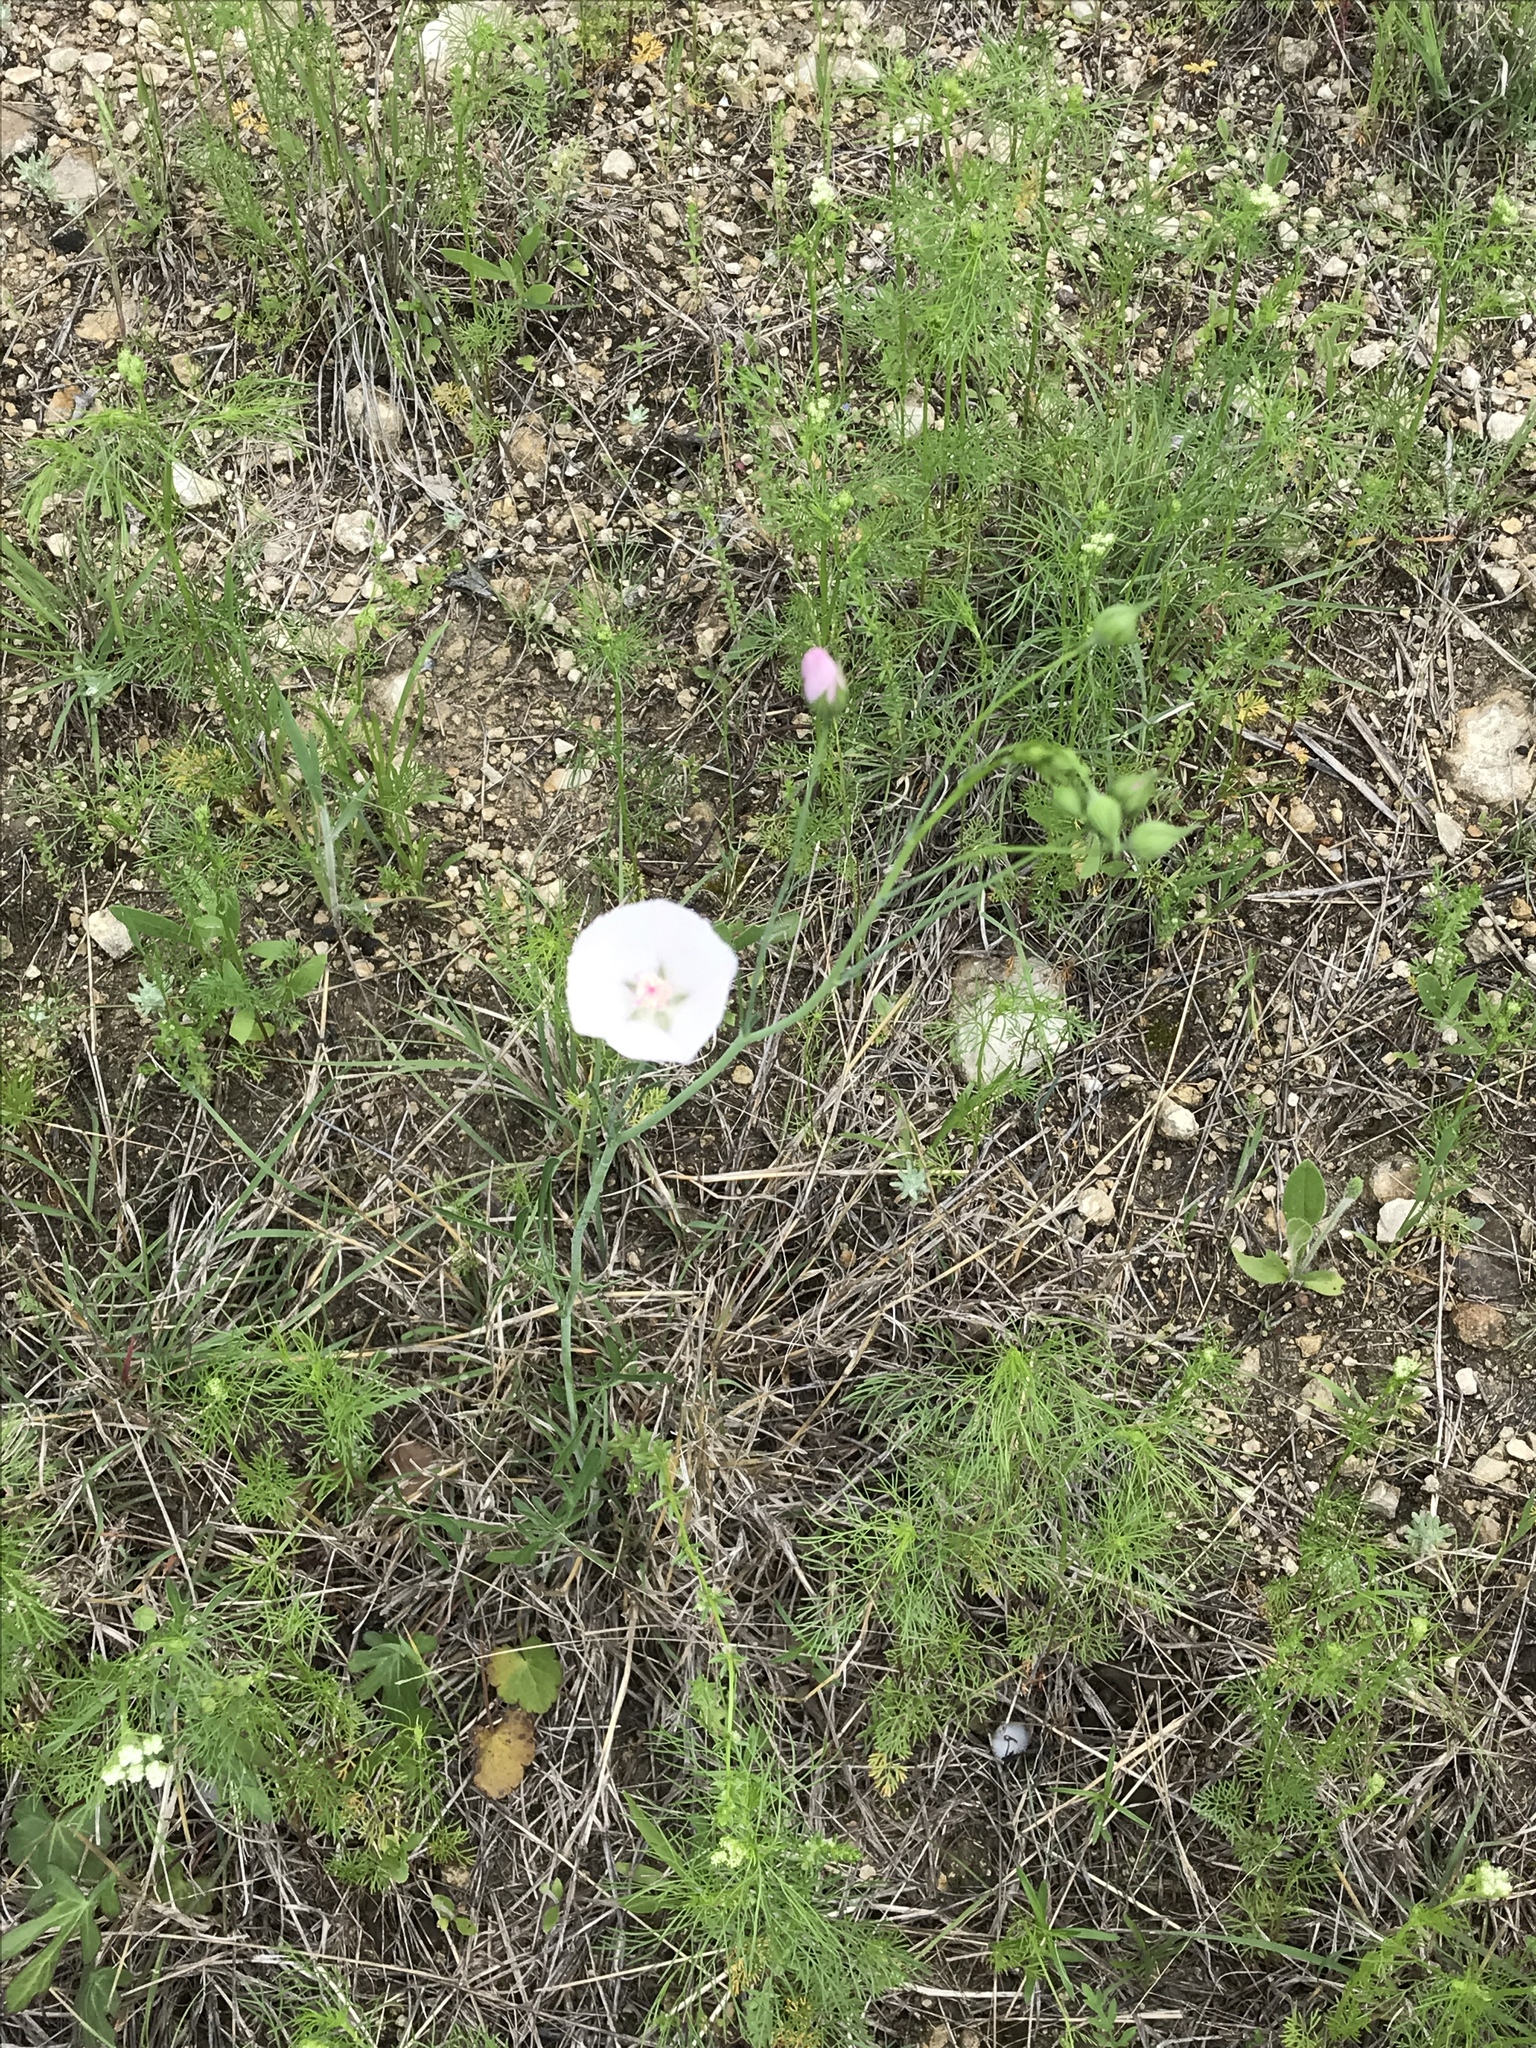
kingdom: Plantae
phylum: Tracheophyta
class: Magnoliopsida
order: Malvales
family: Malvaceae
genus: Callirhoe
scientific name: Callirhoe pedata
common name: Finger poppy-mallow
